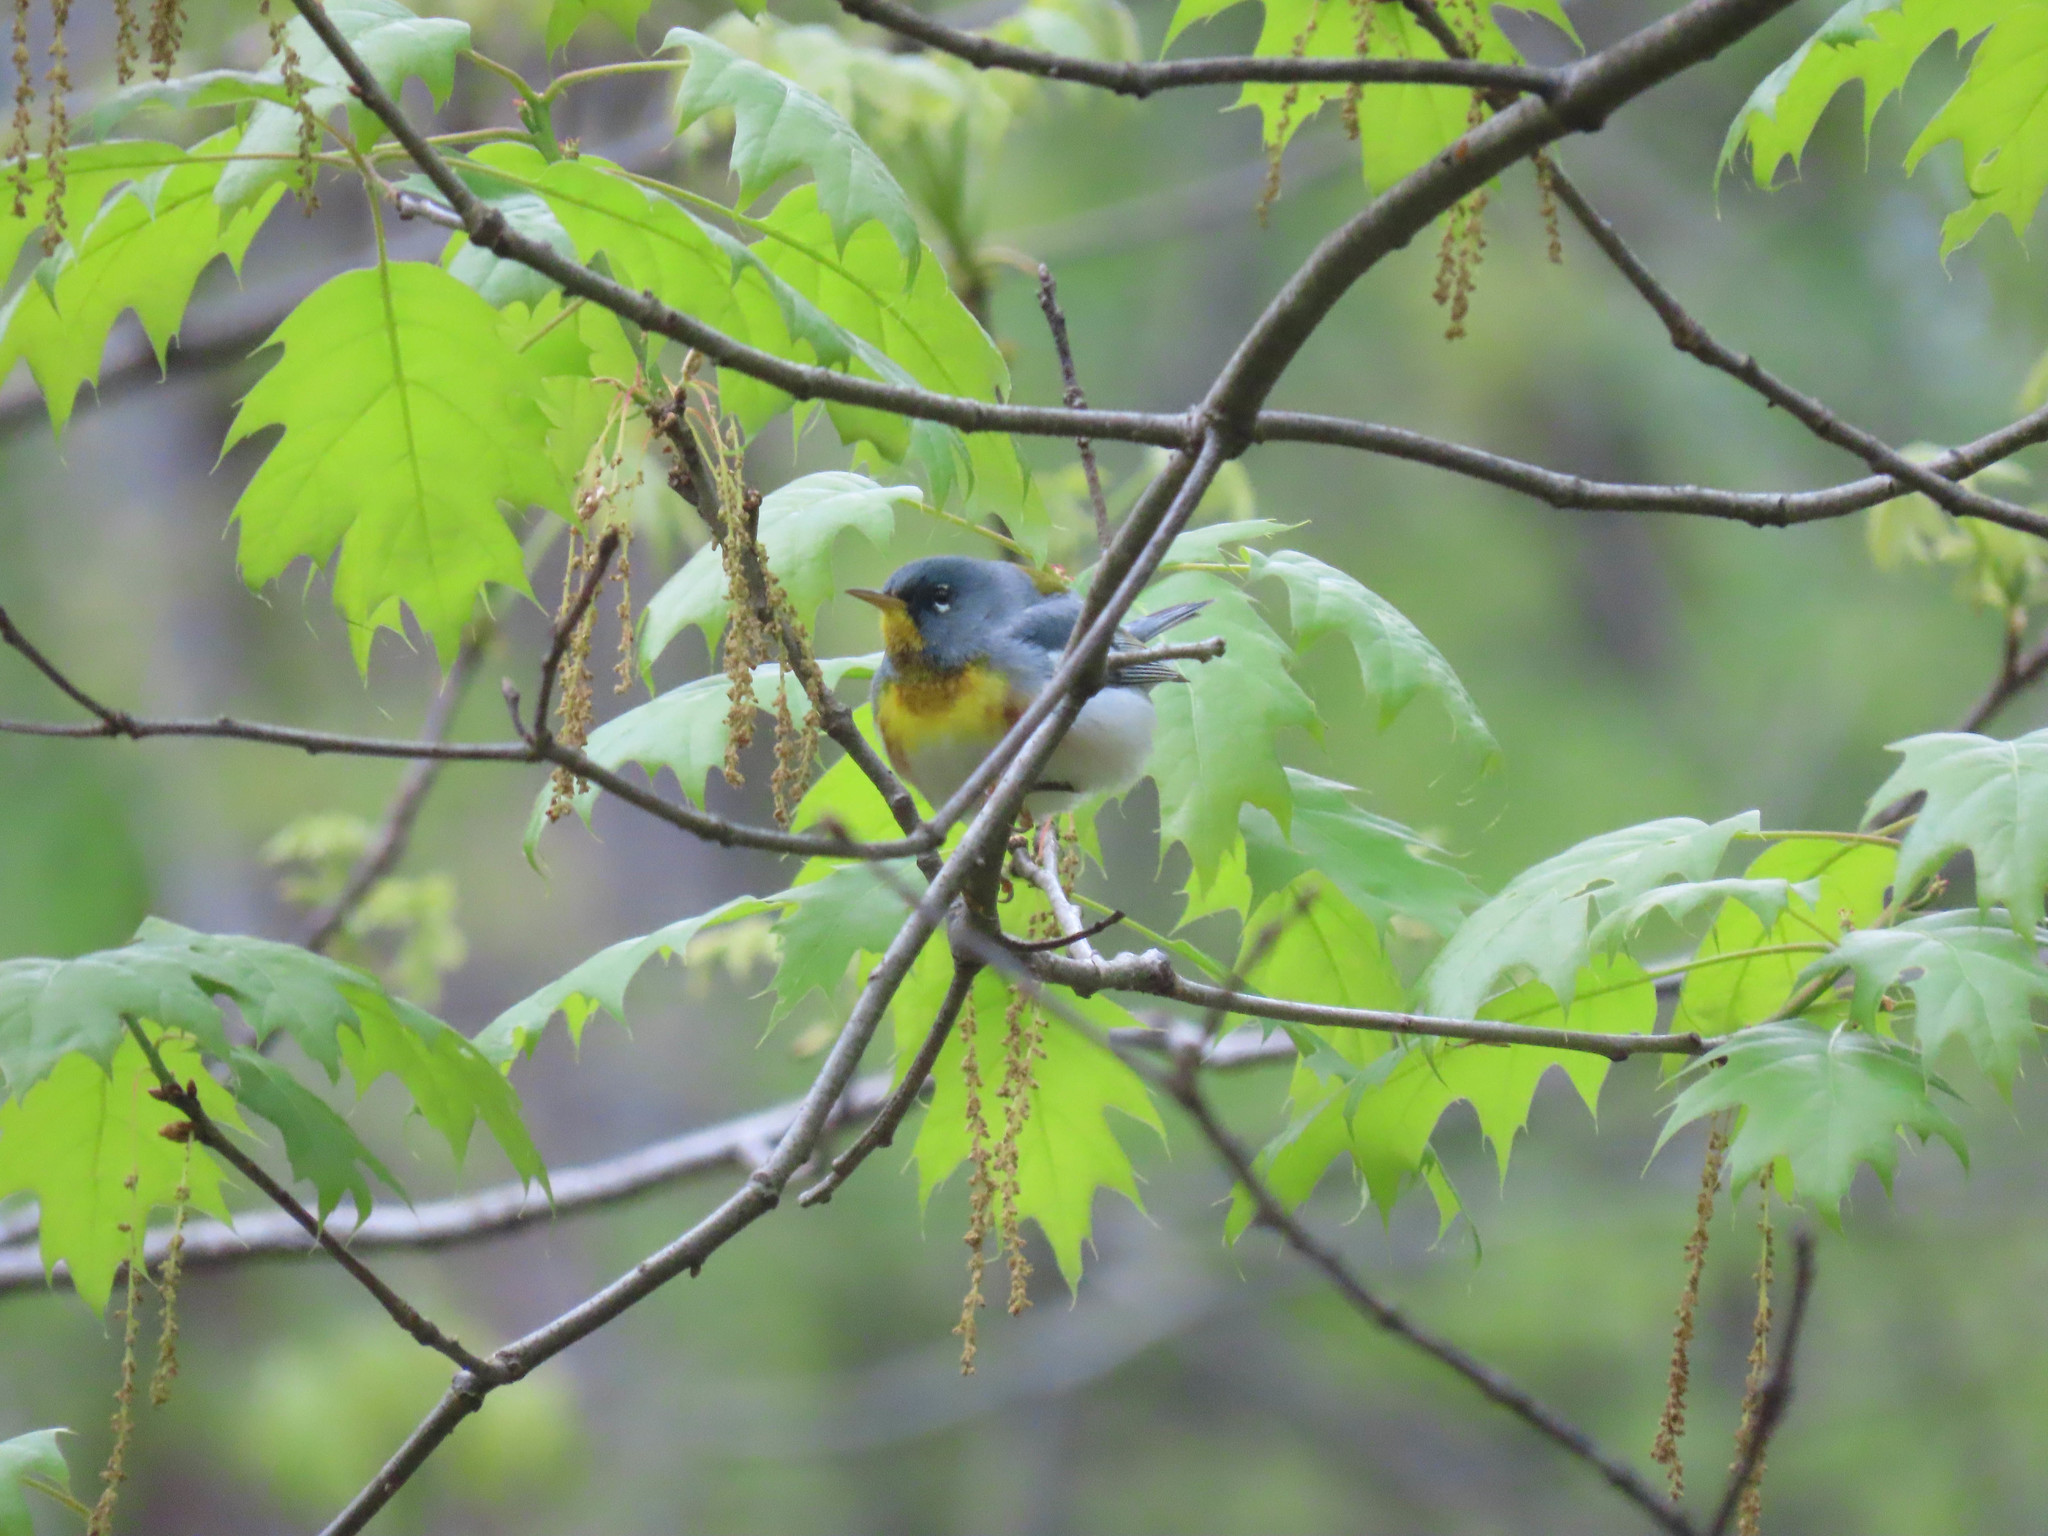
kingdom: Animalia
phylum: Chordata
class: Aves
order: Passeriformes
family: Parulidae
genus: Setophaga
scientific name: Setophaga americana
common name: Northern parula
